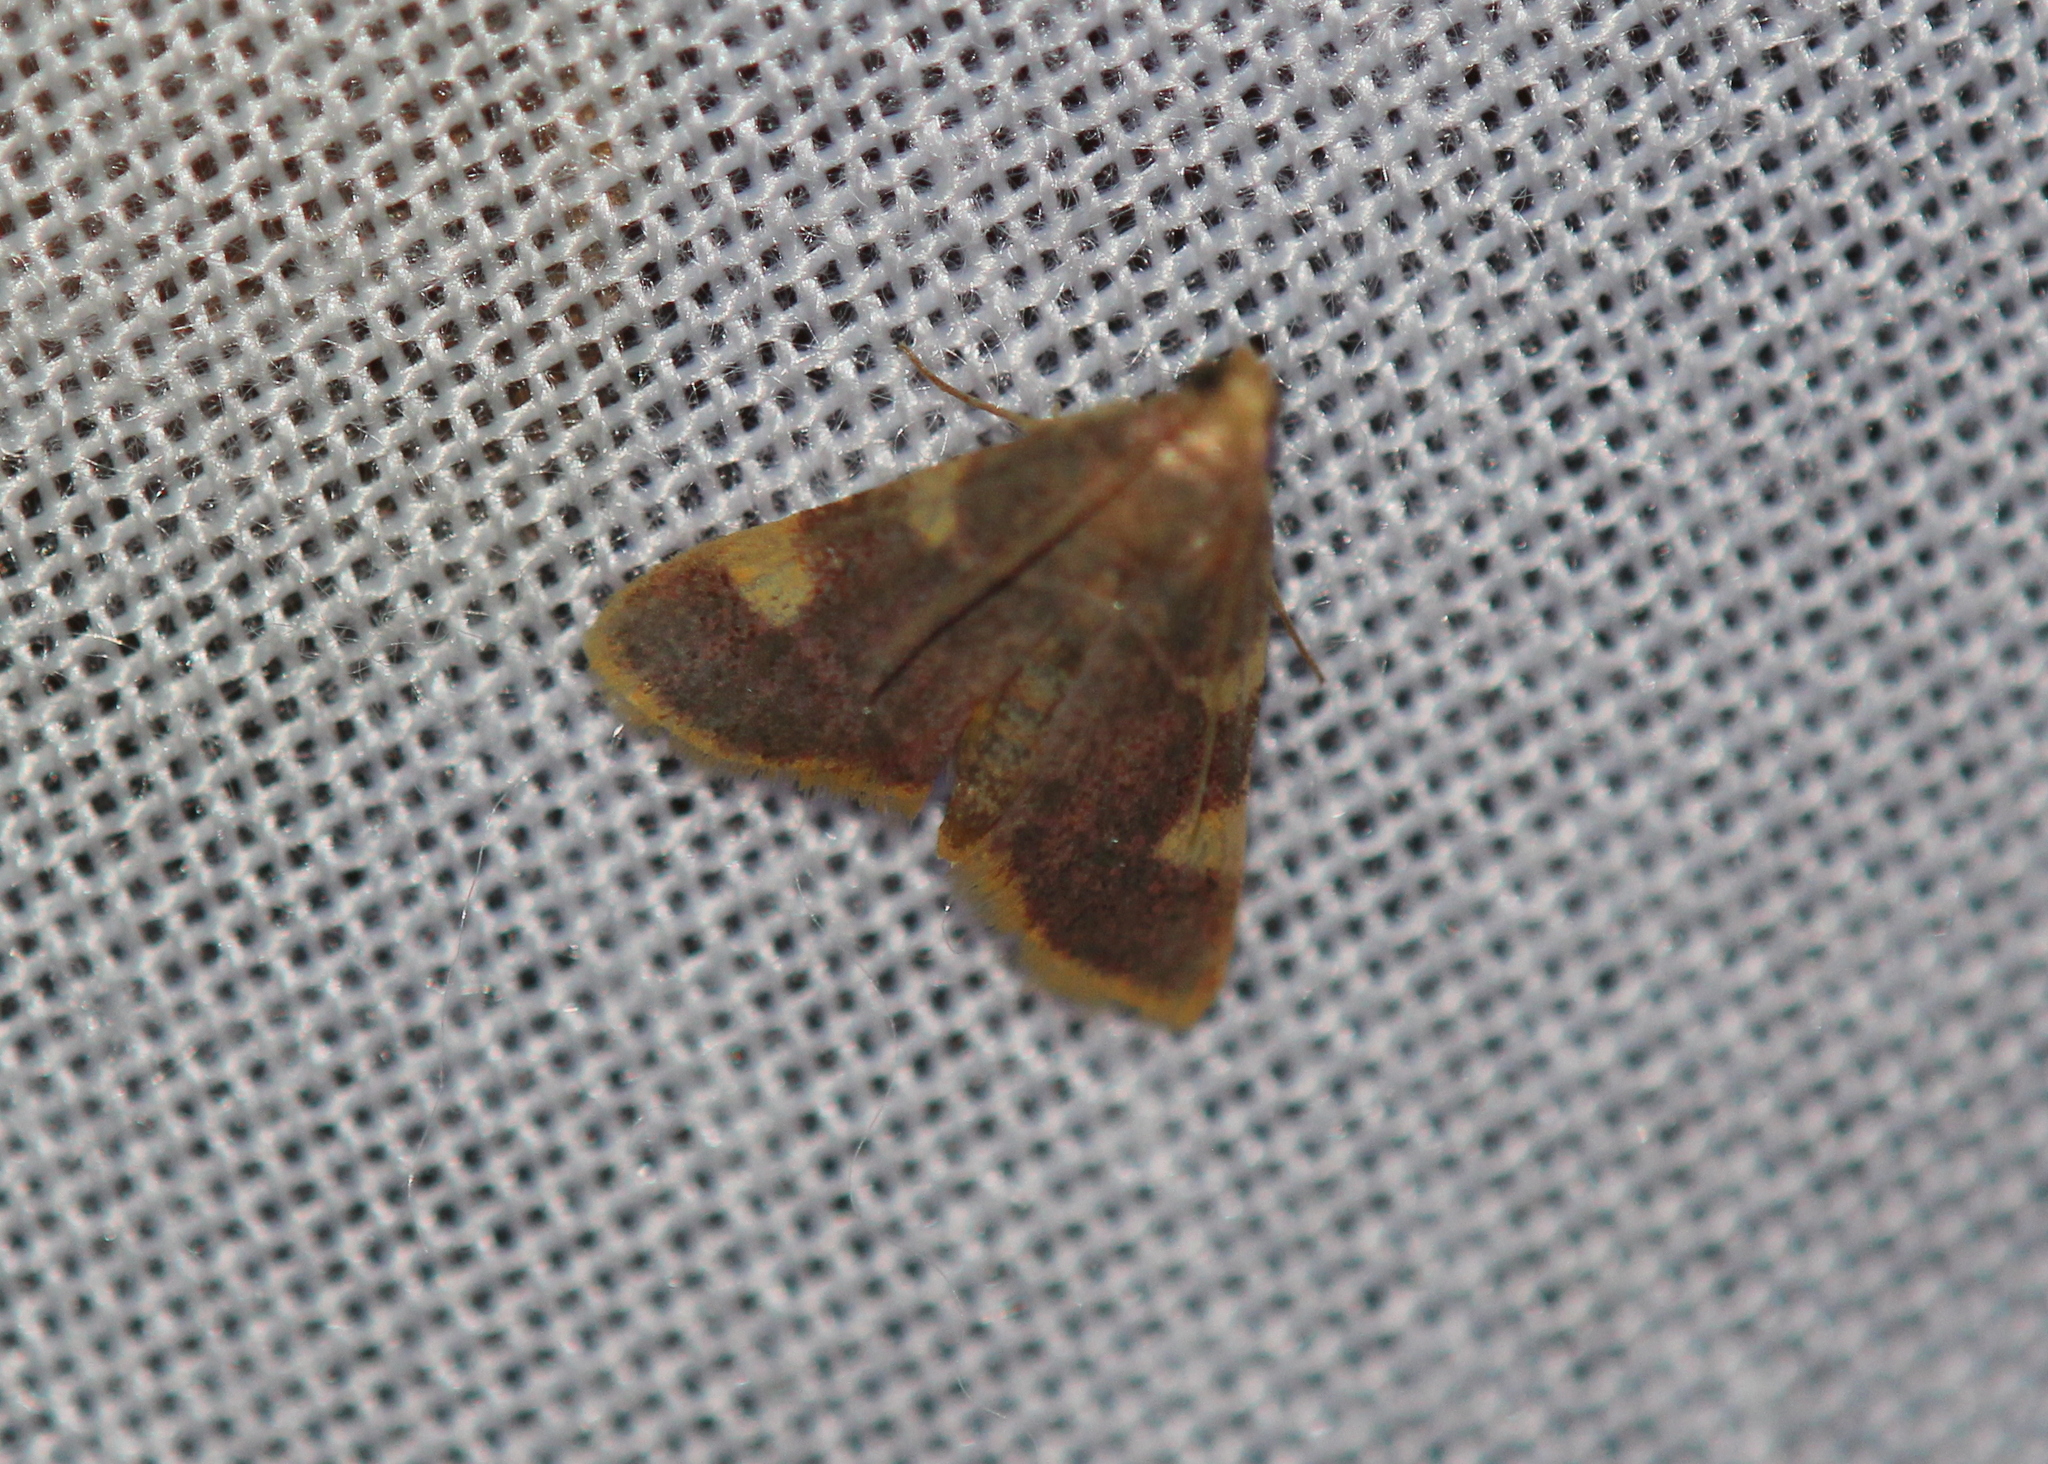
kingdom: Animalia
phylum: Arthropoda
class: Insecta
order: Lepidoptera
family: Pyralidae
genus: Hypsopygia
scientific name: Hypsopygia costalis
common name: Gold triangle
